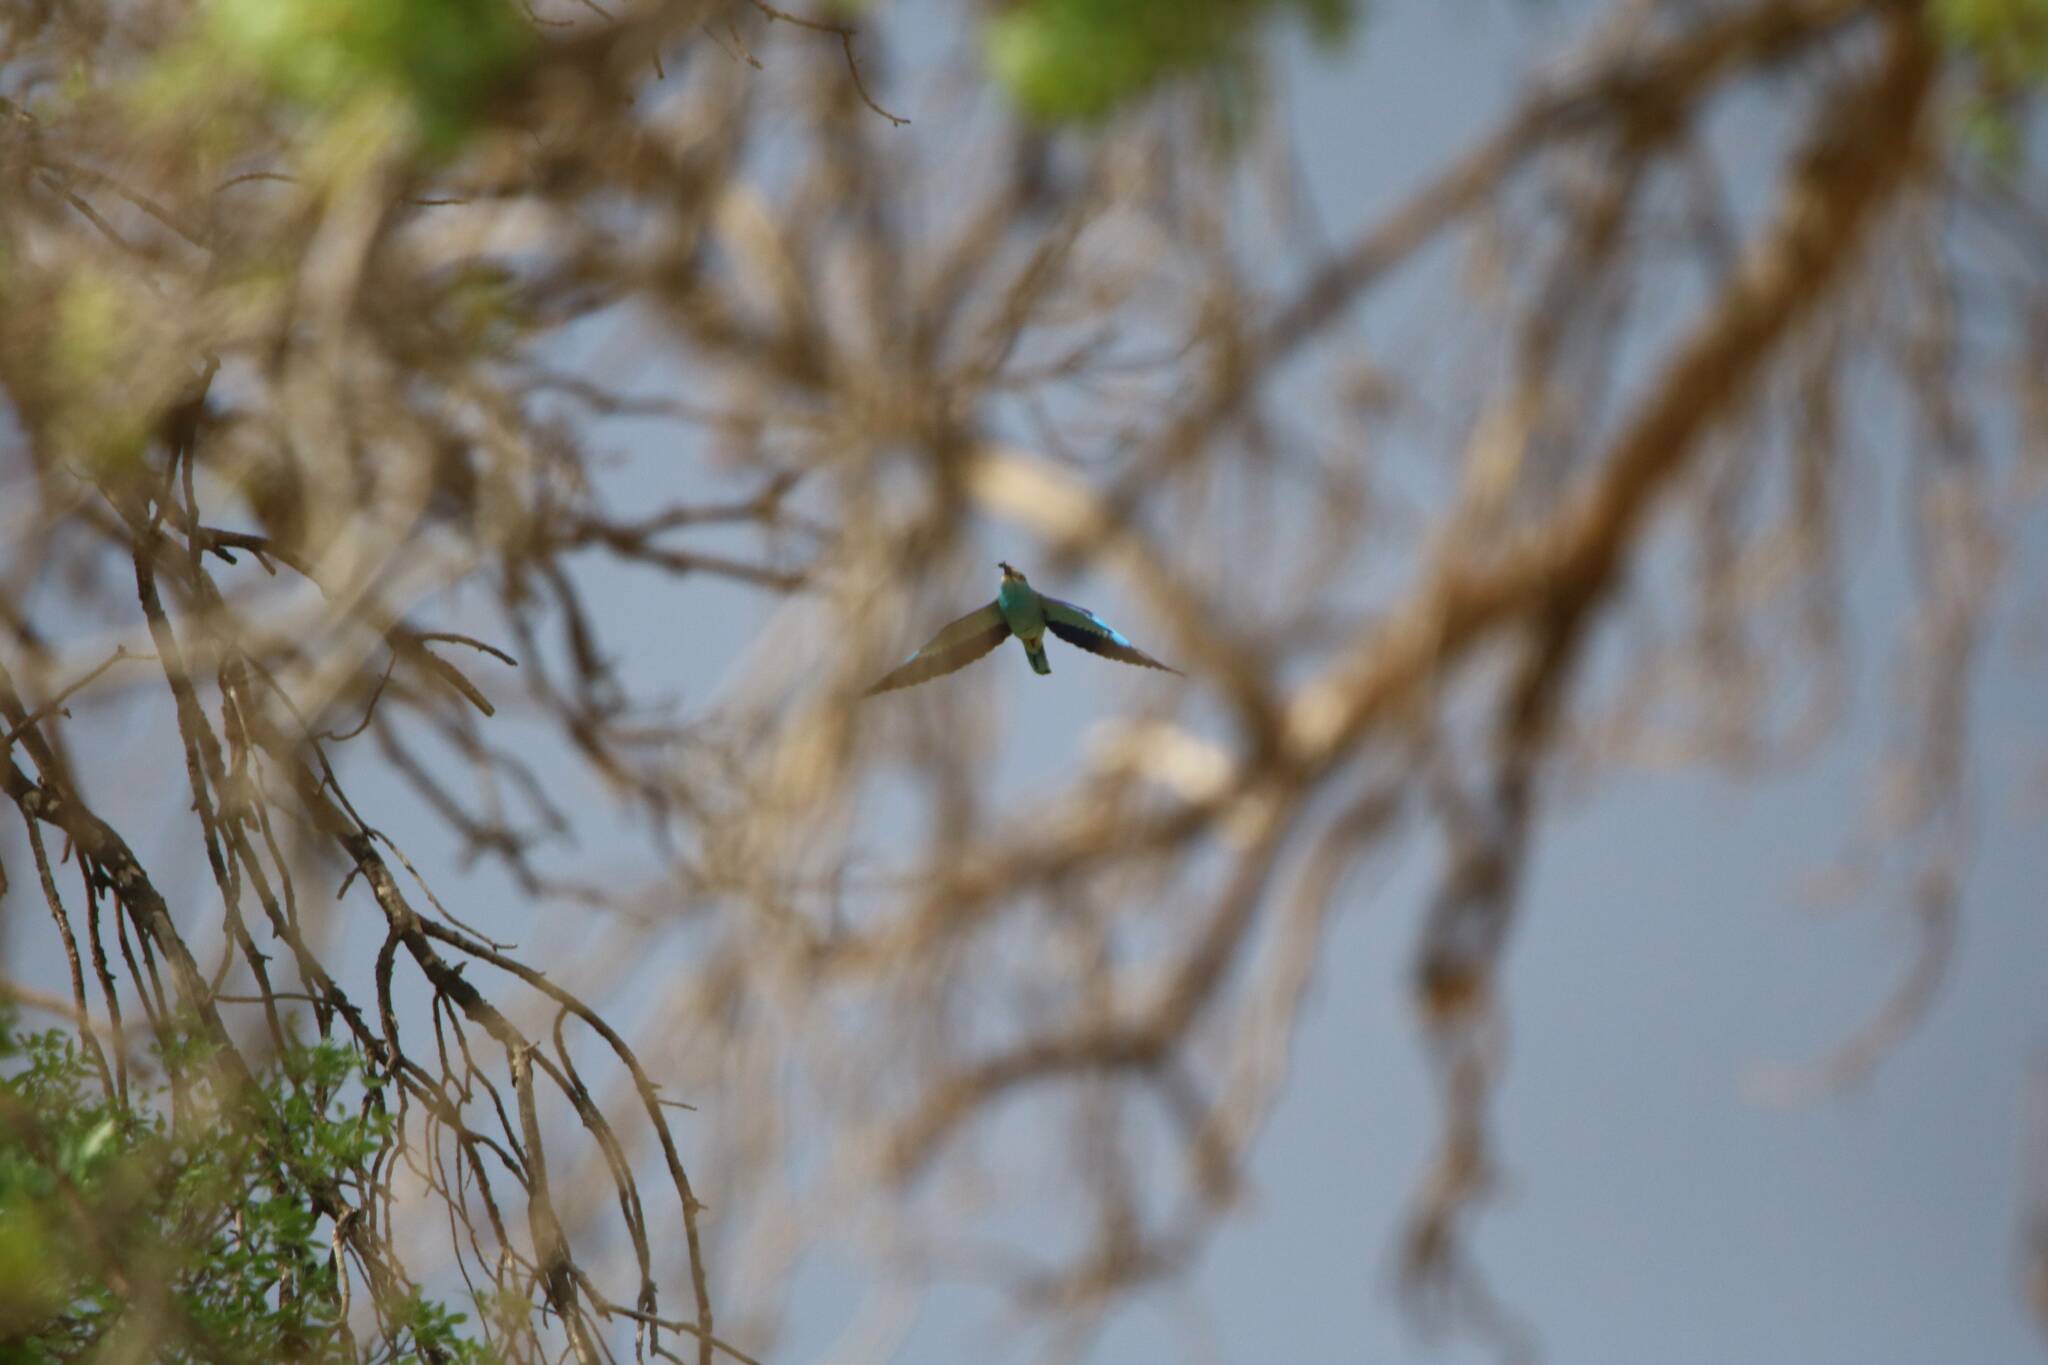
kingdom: Animalia
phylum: Chordata
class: Aves
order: Coraciiformes
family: Coraciidae
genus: Coracias
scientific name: Coracias garrulus
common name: European roller
